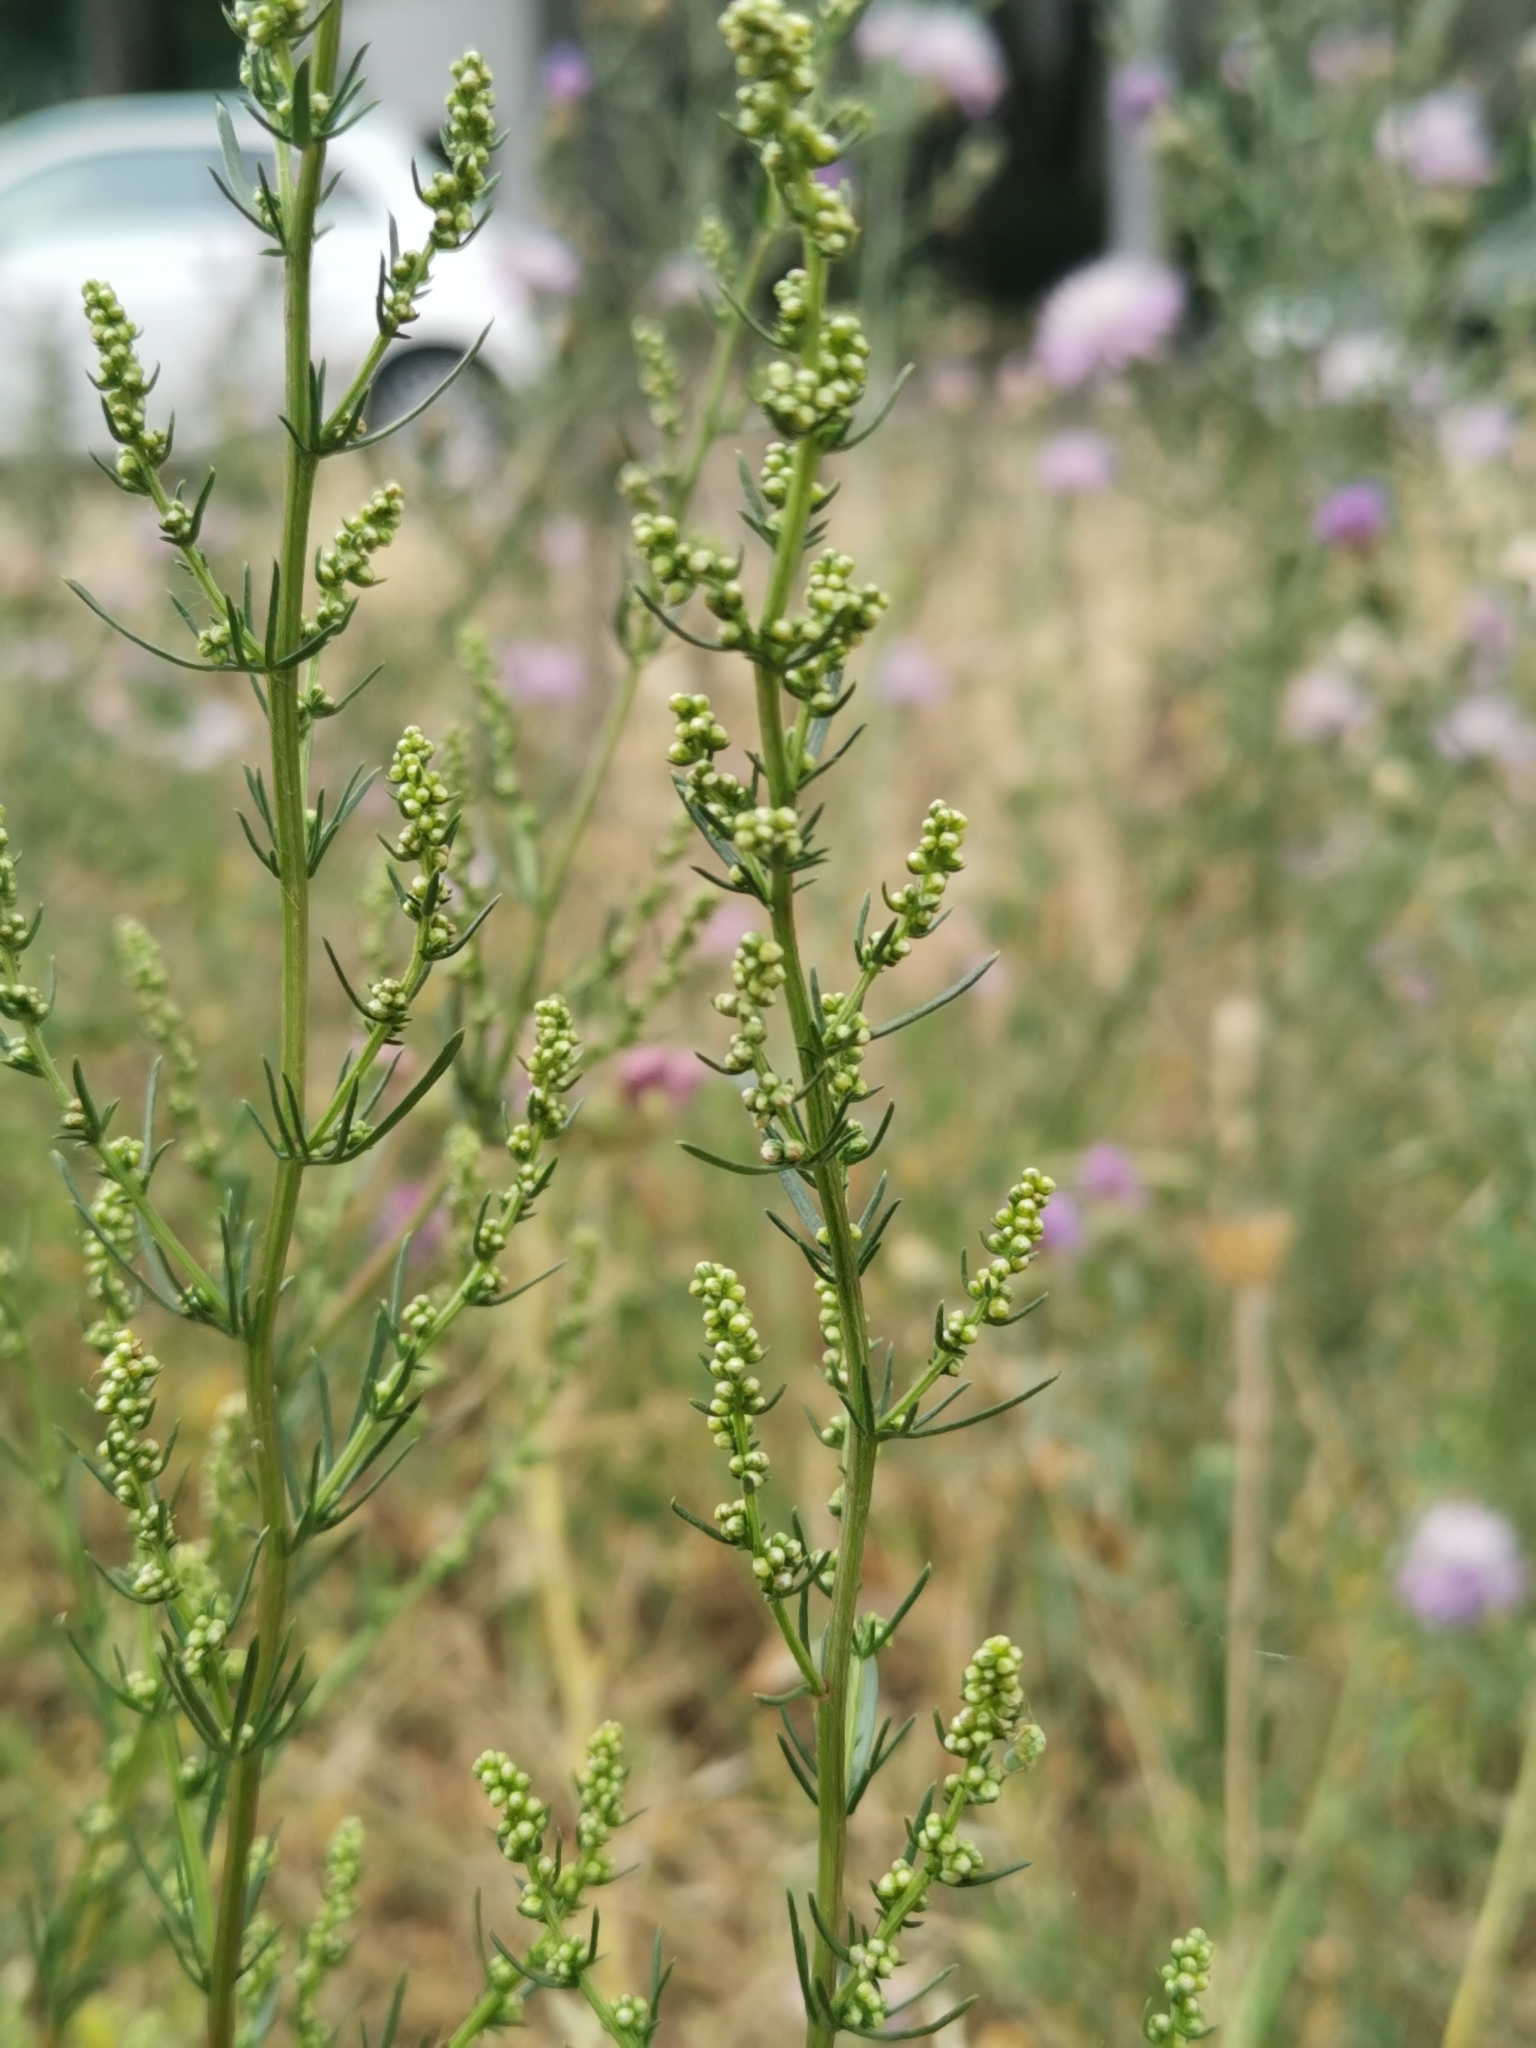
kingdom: Plantae
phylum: Tracheophyta
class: Magnoliopsida
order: Asterales
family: Asteraceae
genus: Artemisia
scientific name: Artemisia campestris
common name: Field wormwood
